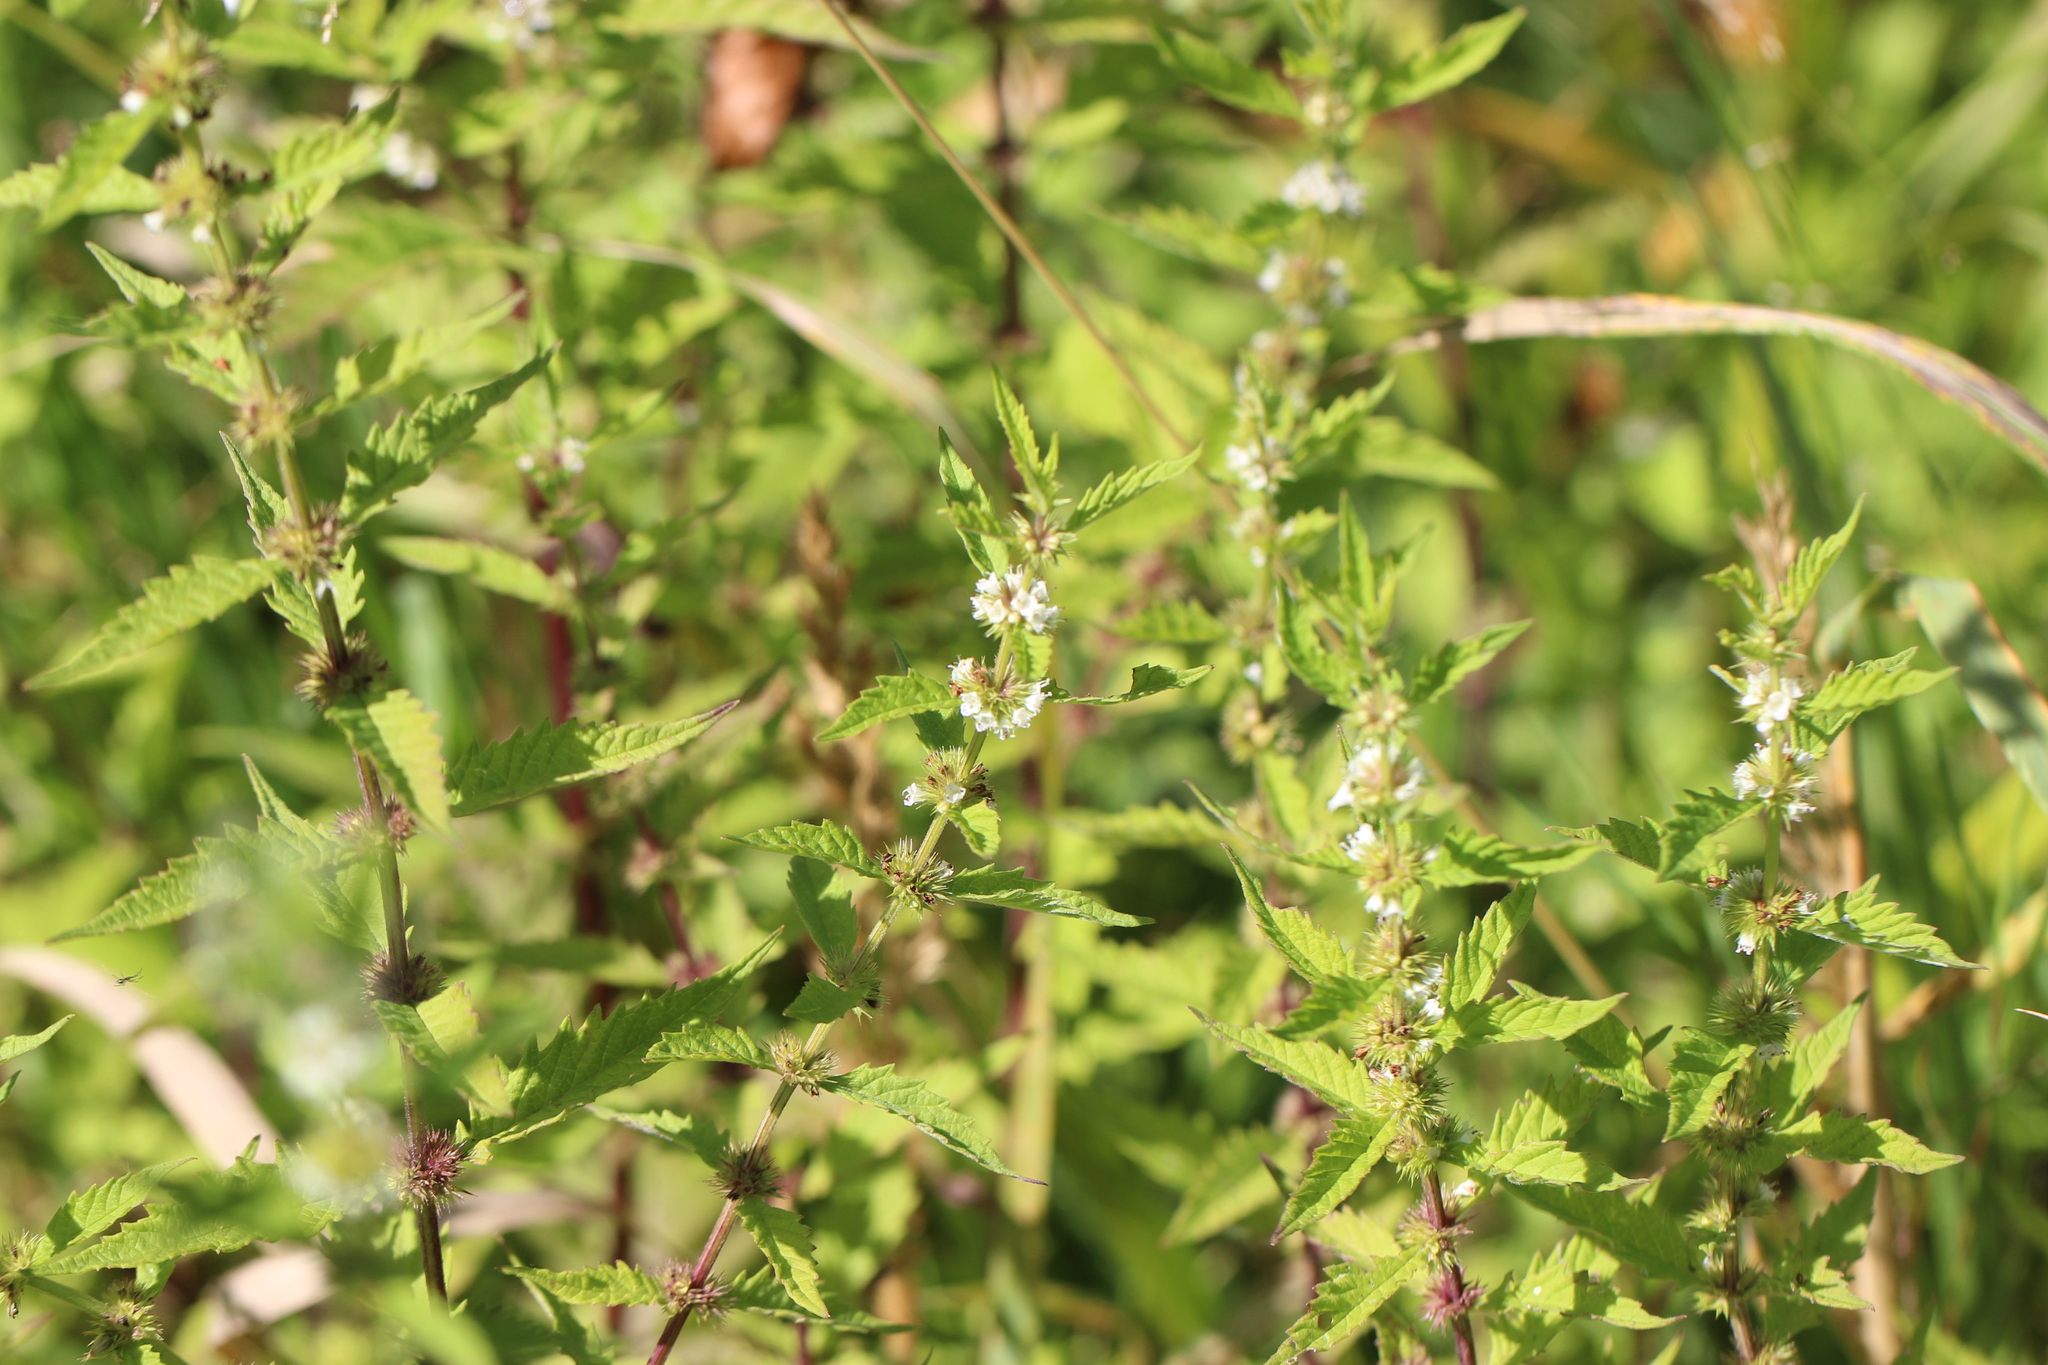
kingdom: Plantae
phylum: Tracheophyta
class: Magnoliopsida
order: Lamiales
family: Lamiaceae
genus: Lycopus
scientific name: Lycopus europaeus
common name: European bugleweed
